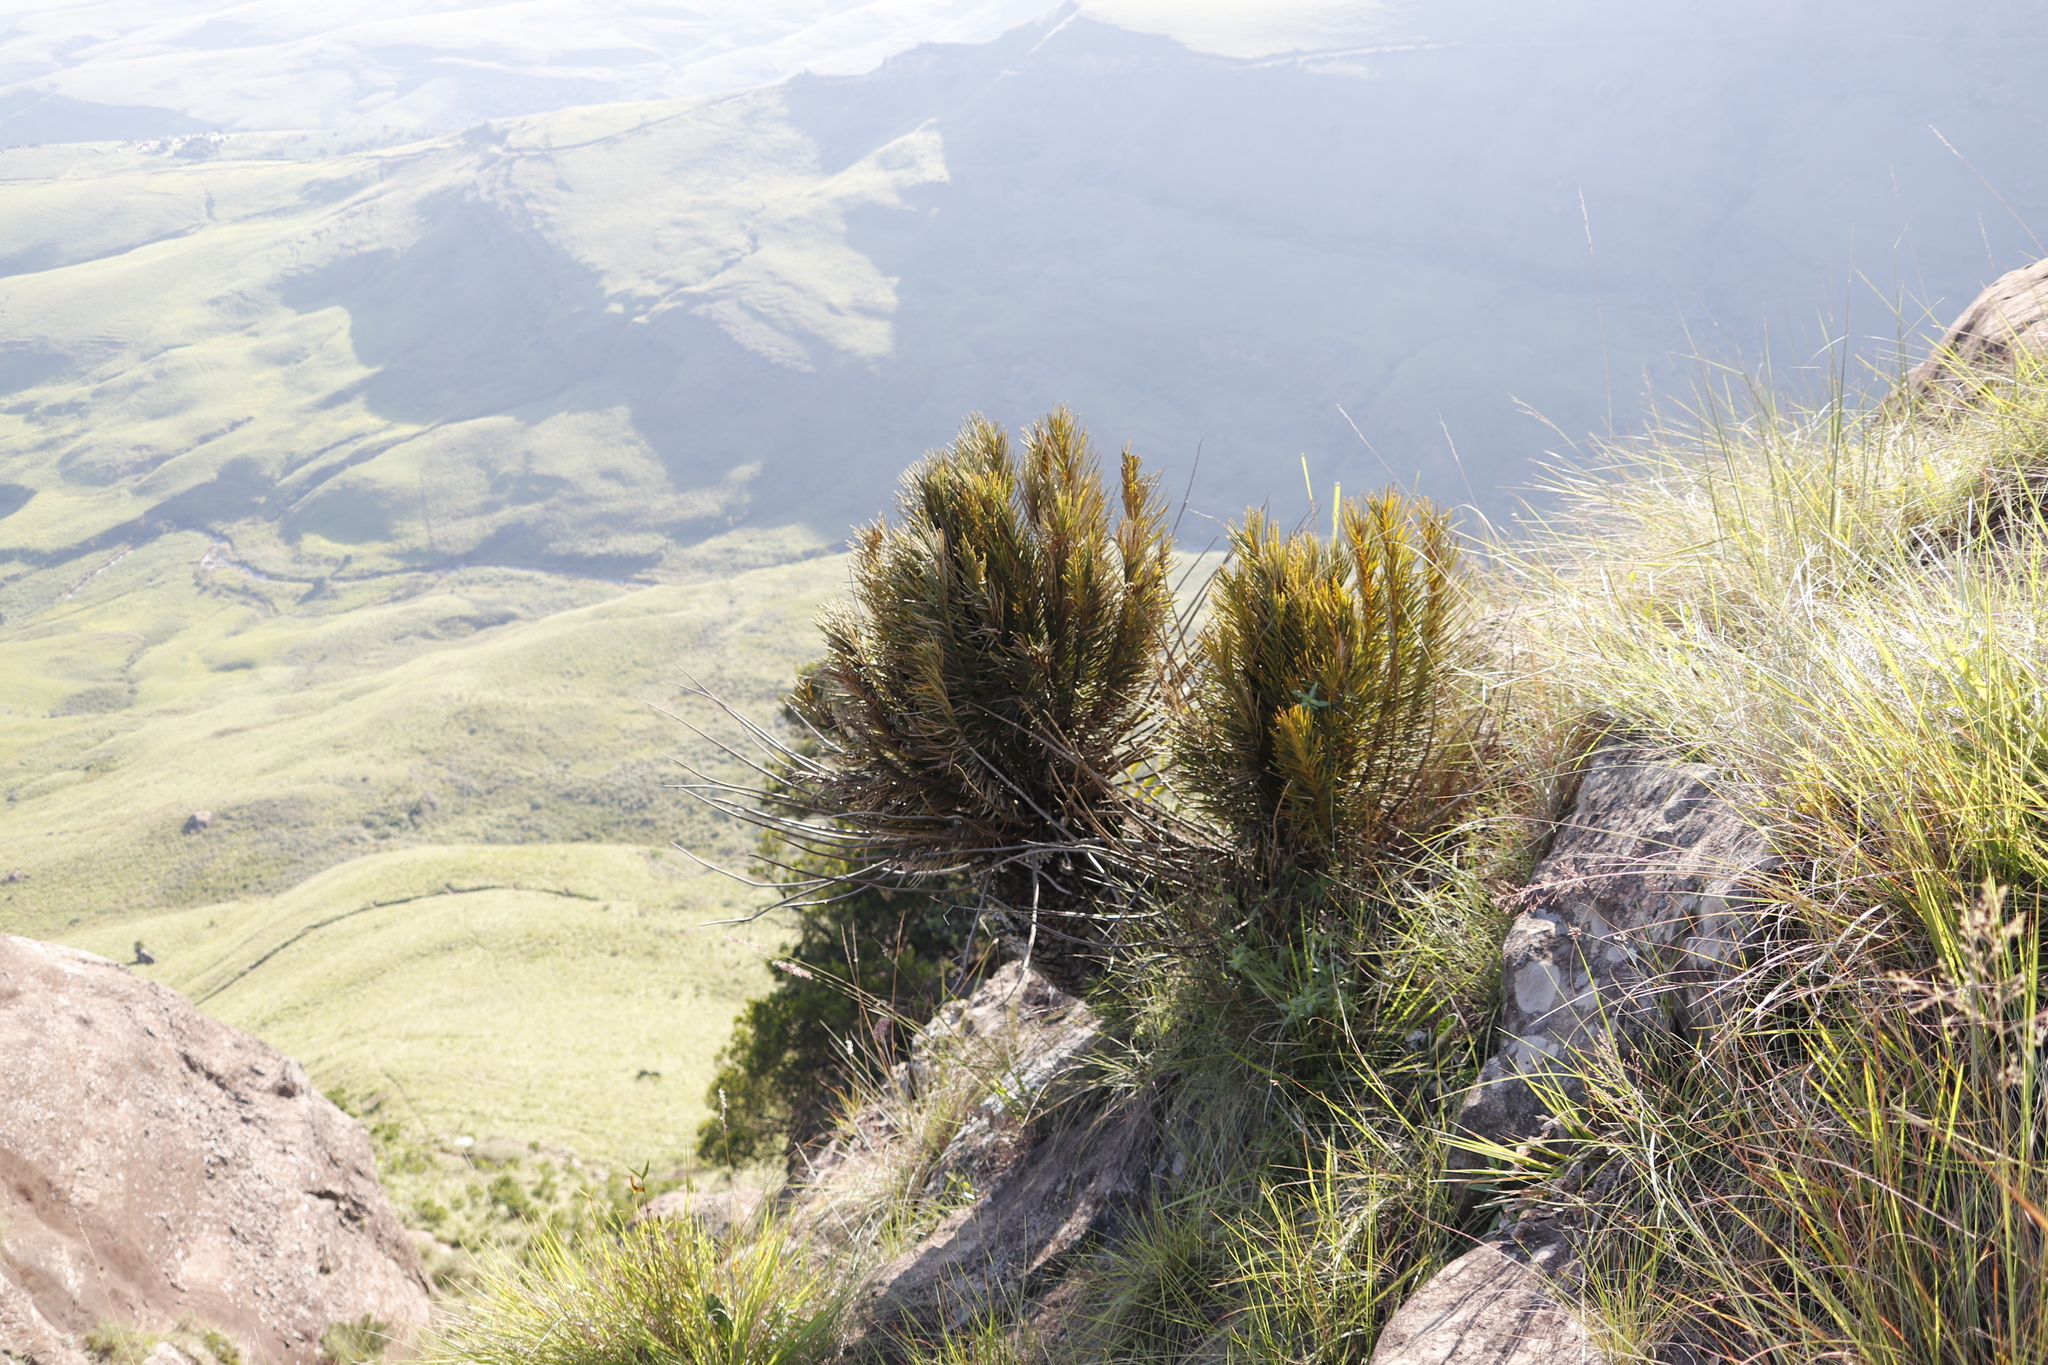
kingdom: Plantae
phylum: Tracheophyta
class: Cycadopsida
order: Cycadales
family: Zamiaceae
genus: Encephalartos
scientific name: Encephalartos ghellinckii
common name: Drakensberg cycad
